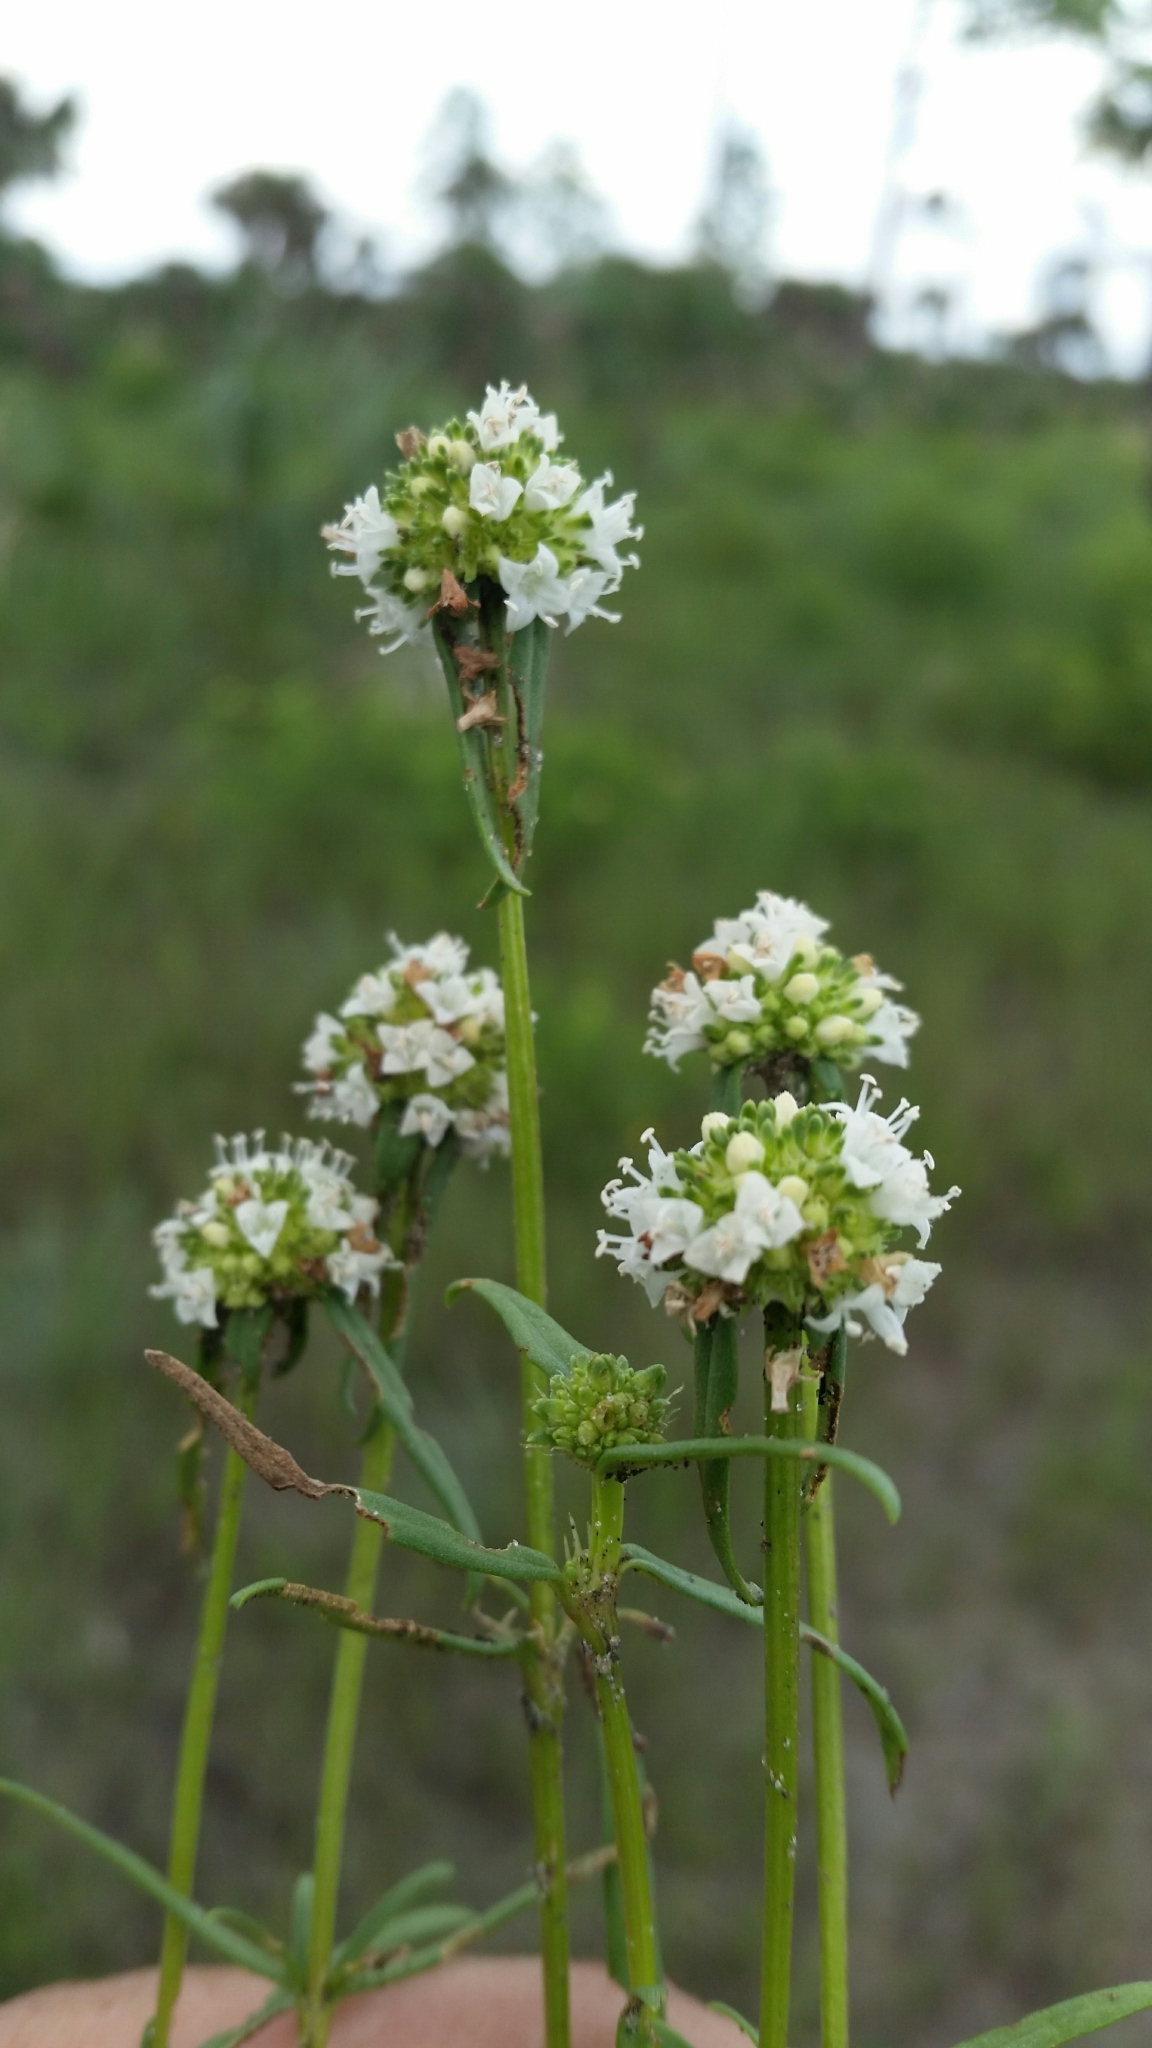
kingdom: Plantae
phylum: Tracheophyta
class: Magnoliopsida
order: Gentianales
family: Rubiaceae
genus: Spermacoce
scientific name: Spermacoce neoterminalis
